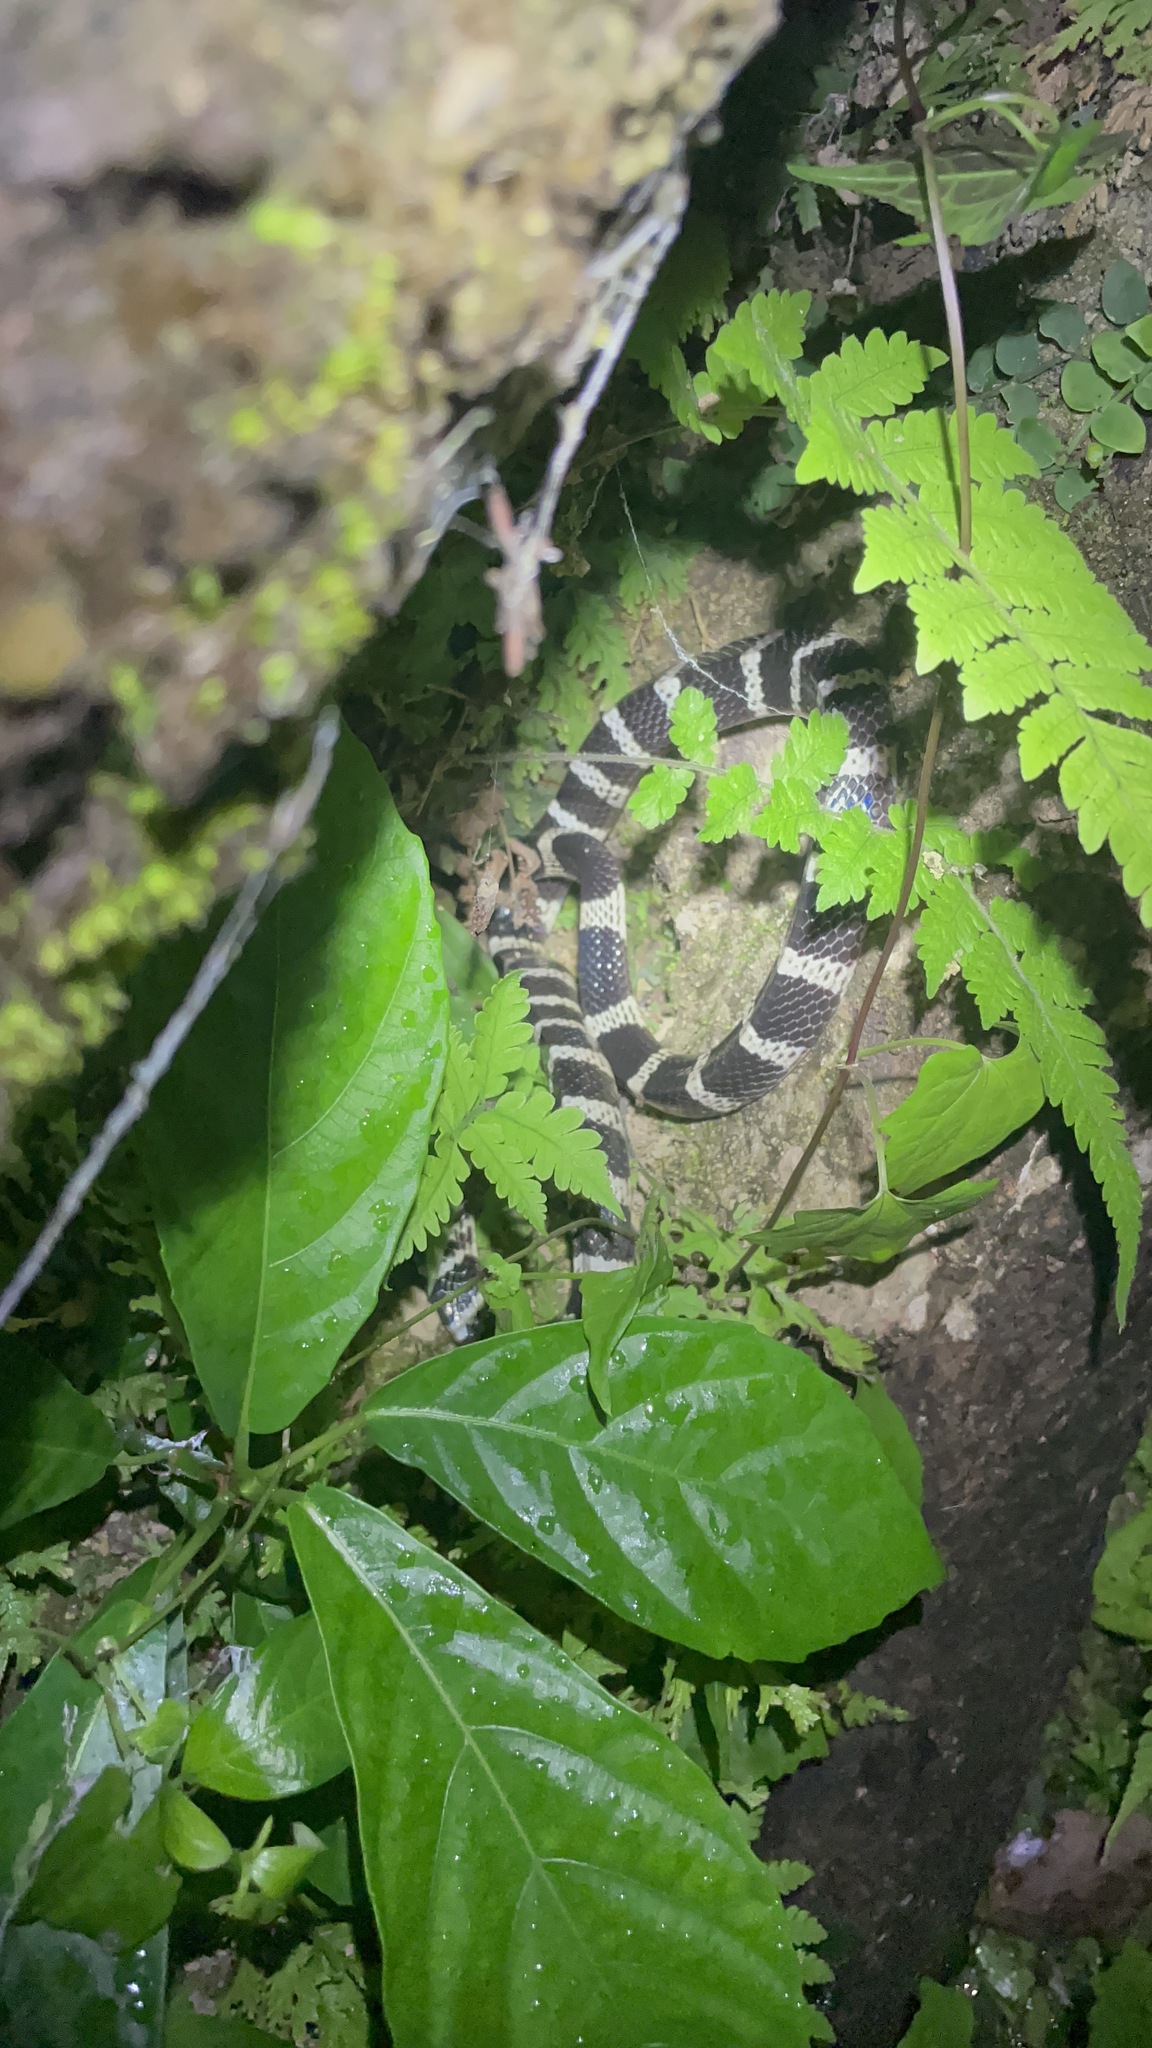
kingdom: Animalia
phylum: Chordata
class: Squamata
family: Elapidae
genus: Bungarus
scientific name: Bungarus multicinctus
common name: Many-banded krait
